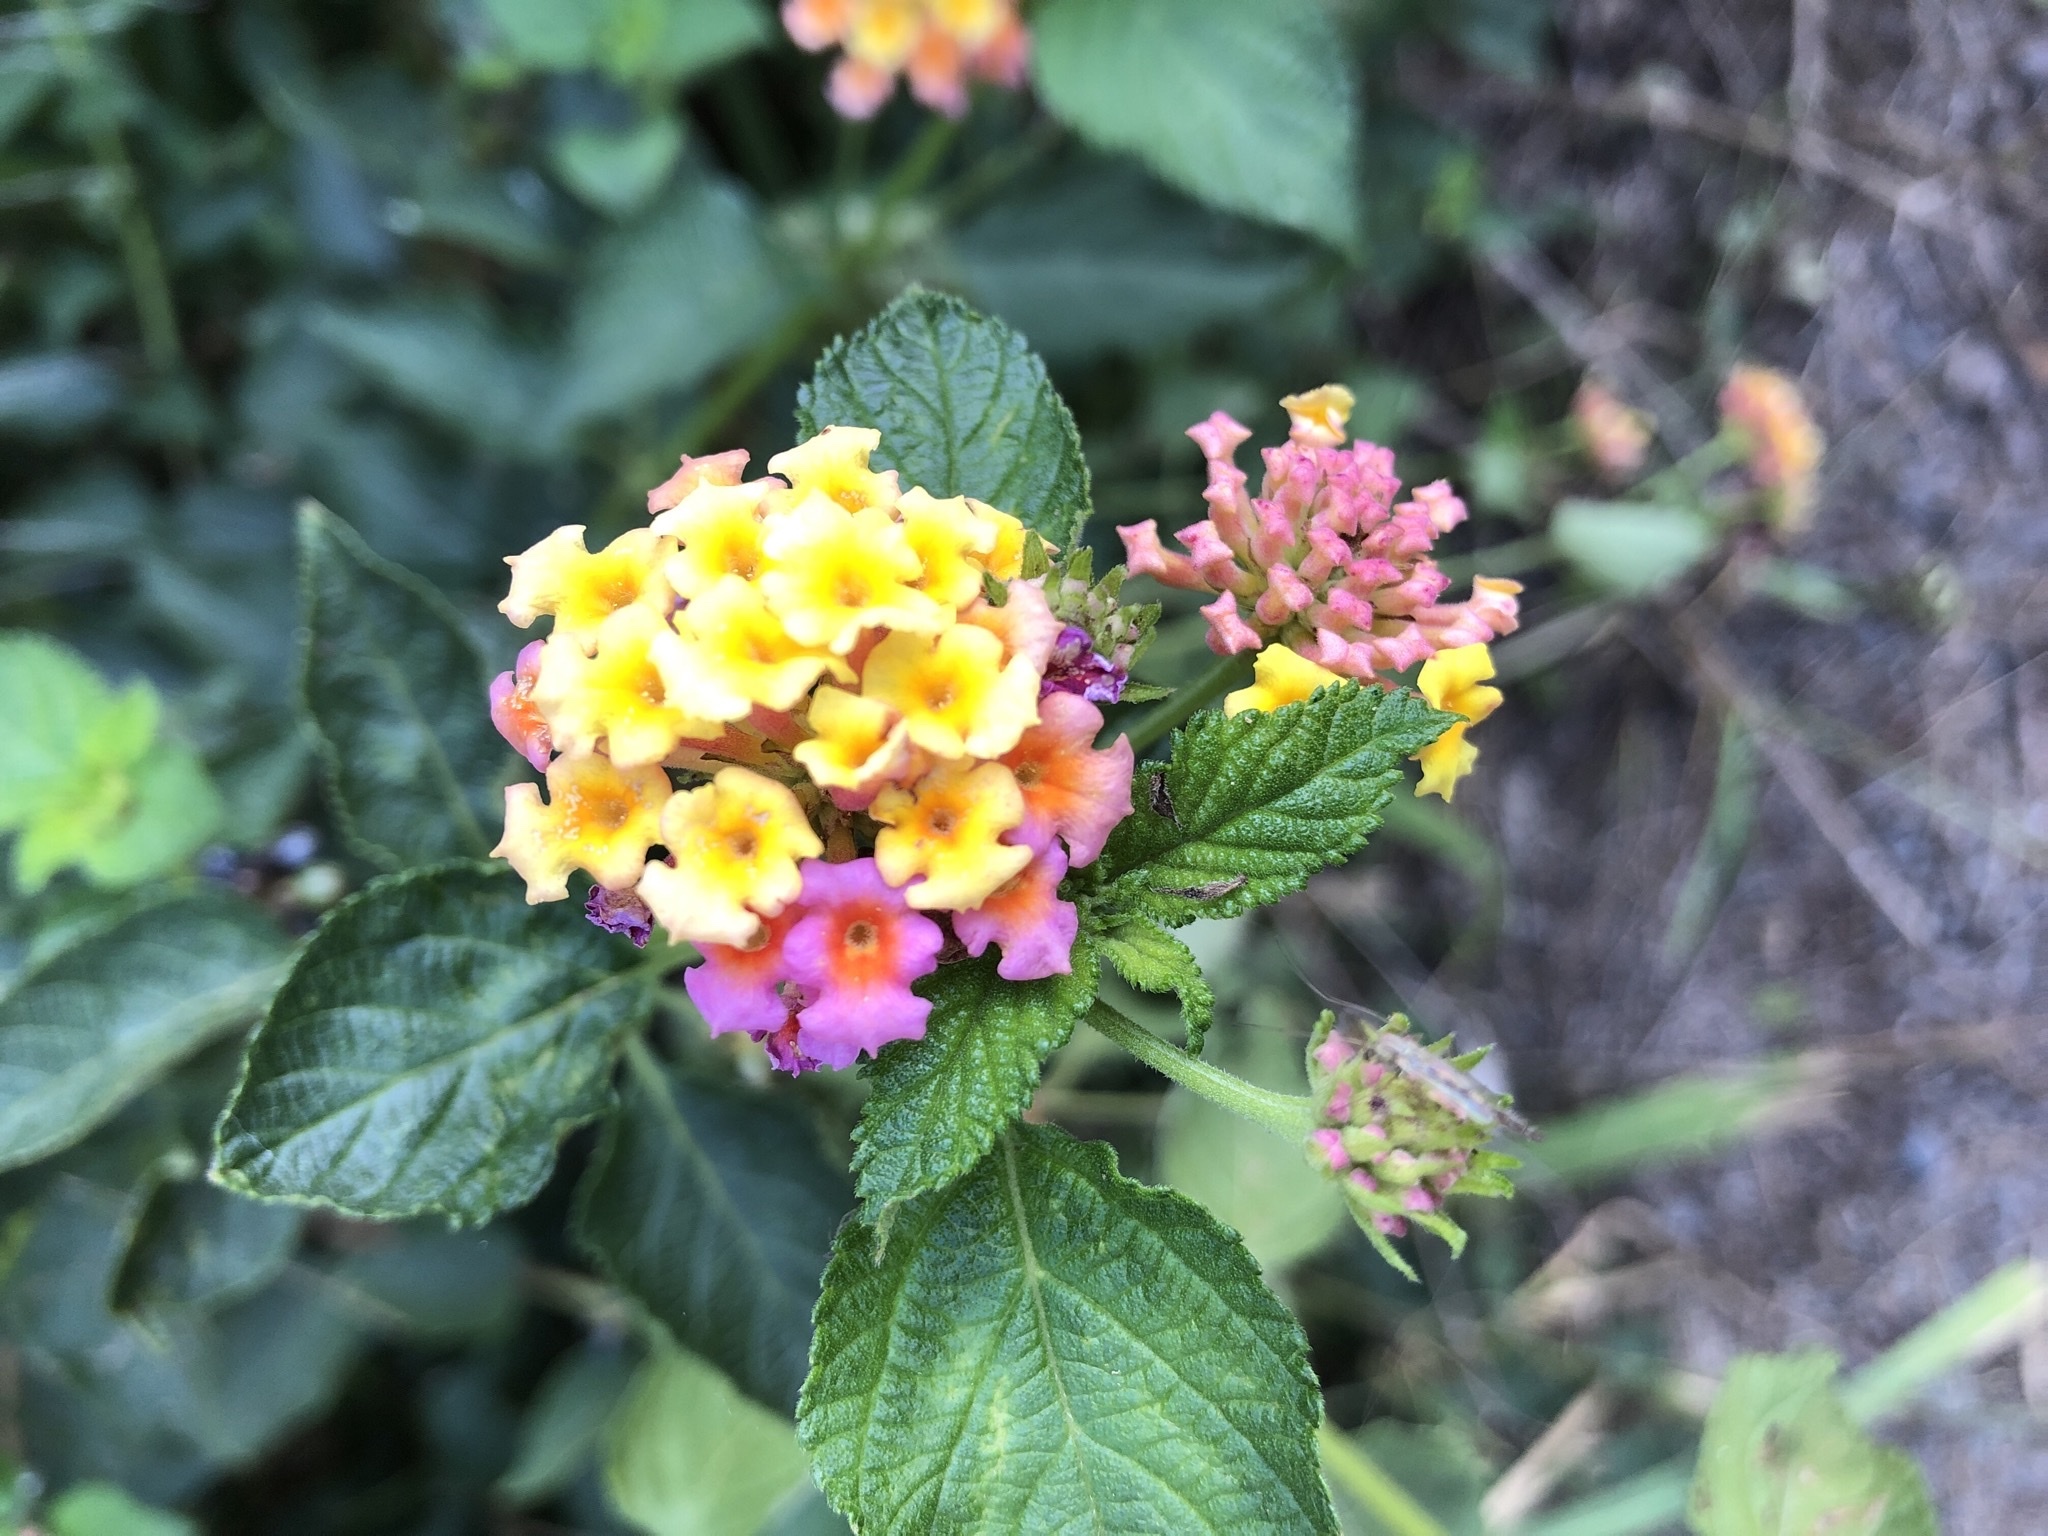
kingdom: Plantae
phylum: Tracheophyta
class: Magnoliopsida
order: Lamiales
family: Verbenaceae
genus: Lantana
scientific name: Lantana camara
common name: Lantana
